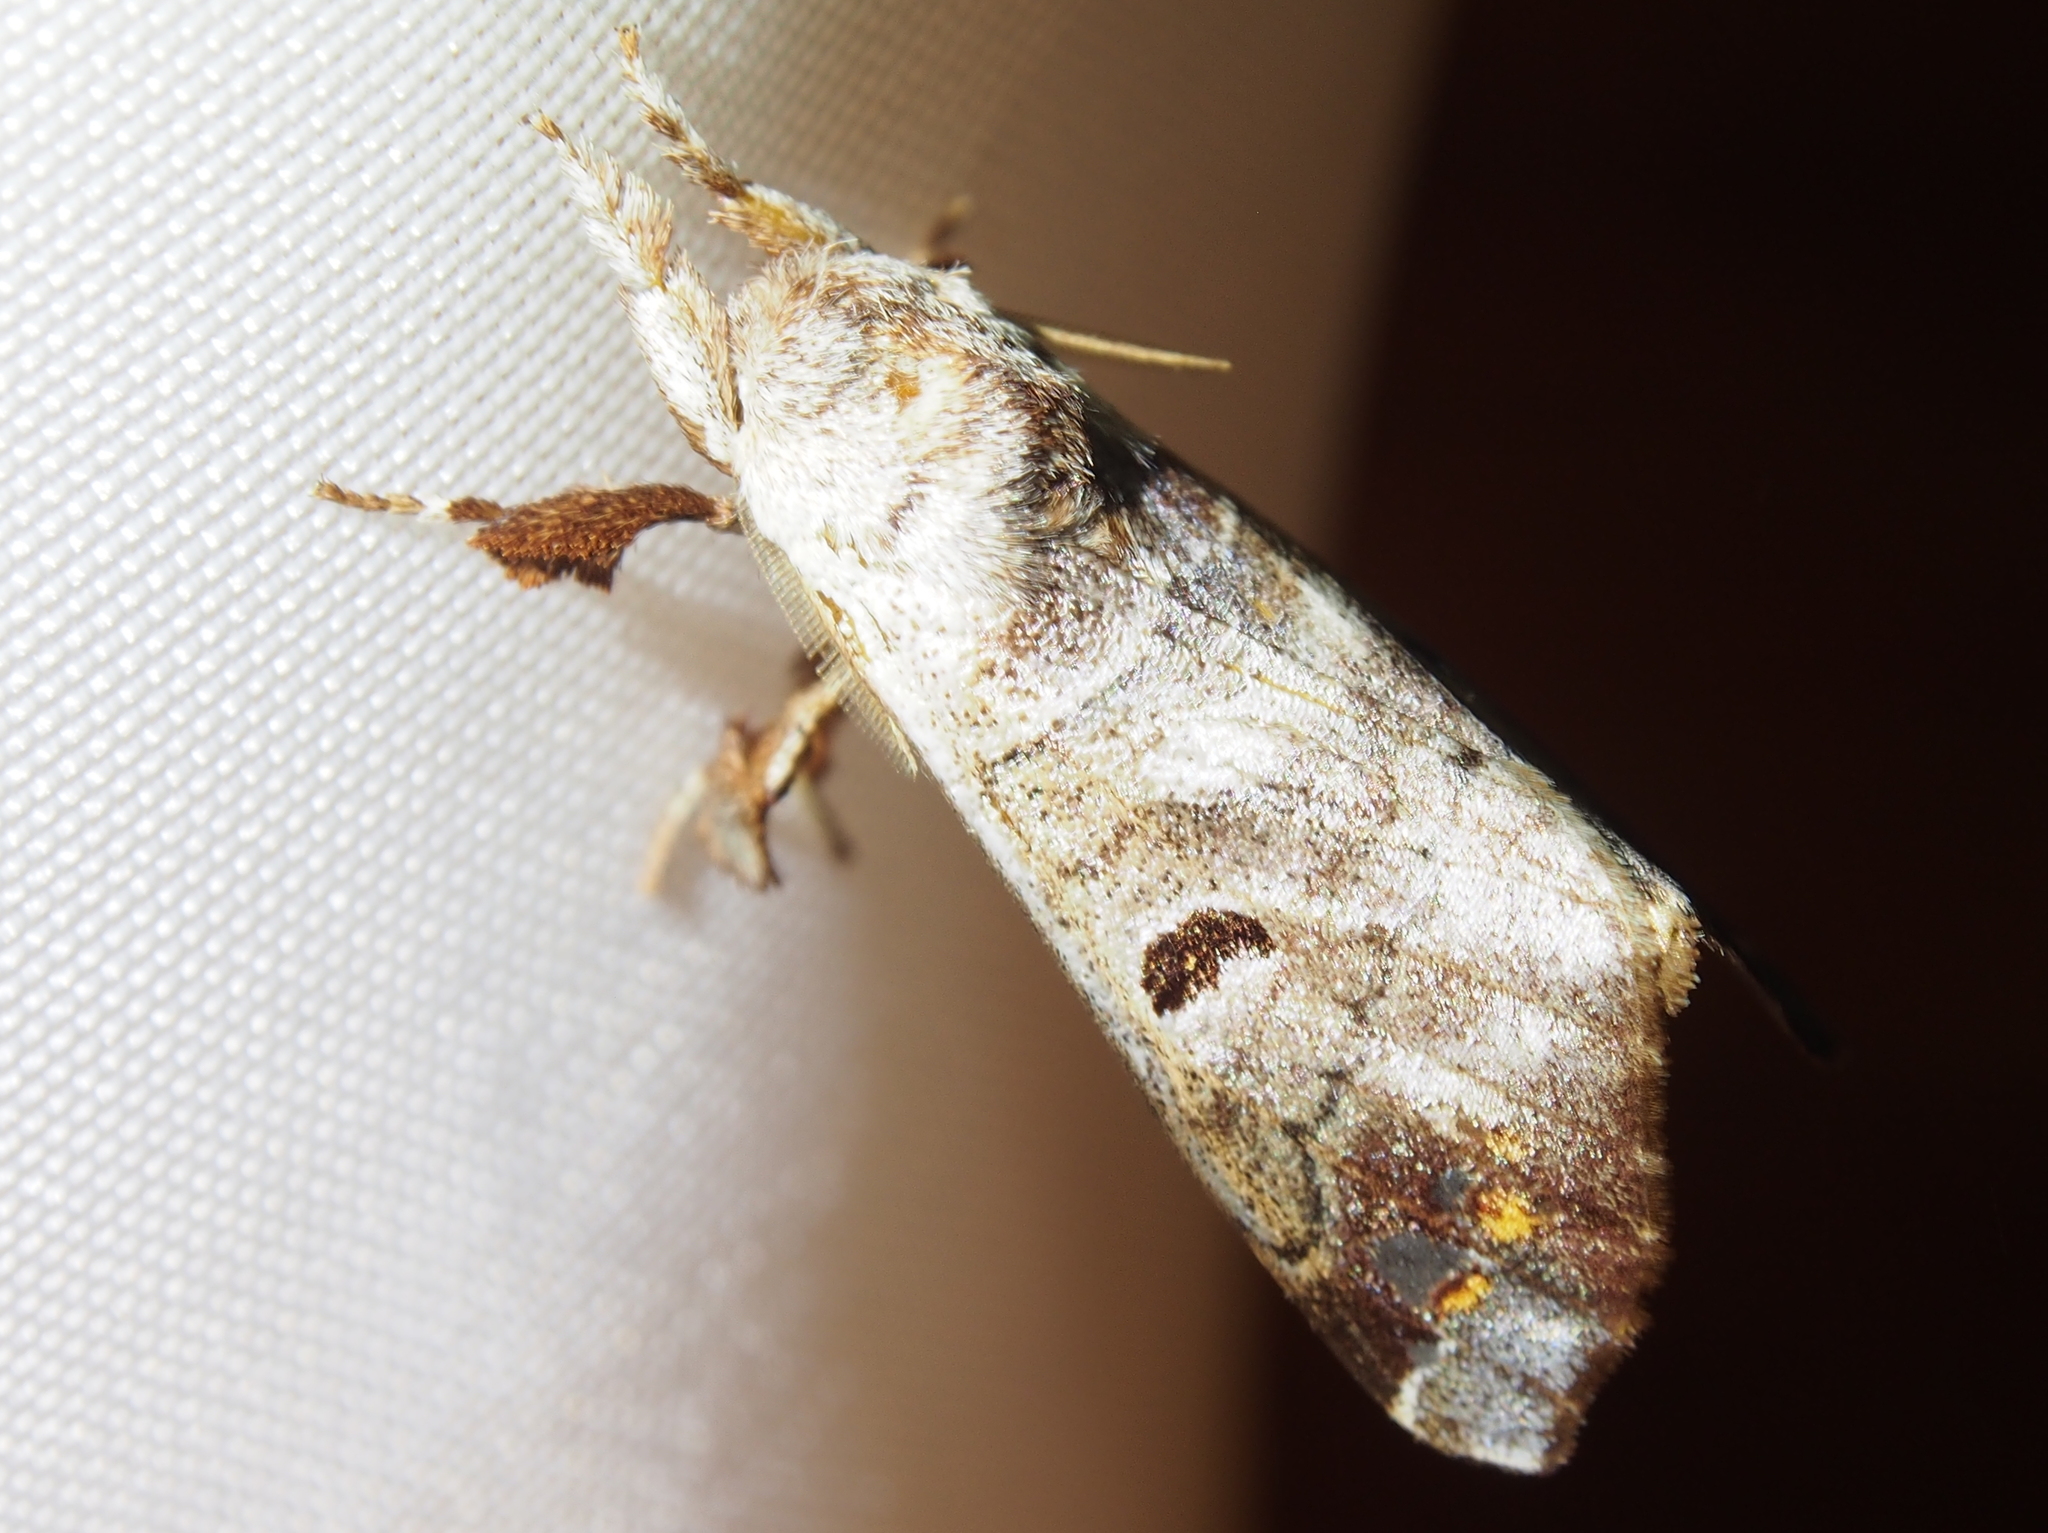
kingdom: Animalia
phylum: Arthropoda
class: Insecta
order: Lepidoptera
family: Apatelodidae
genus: Pantelodes
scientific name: Pantelodes centralamericana
